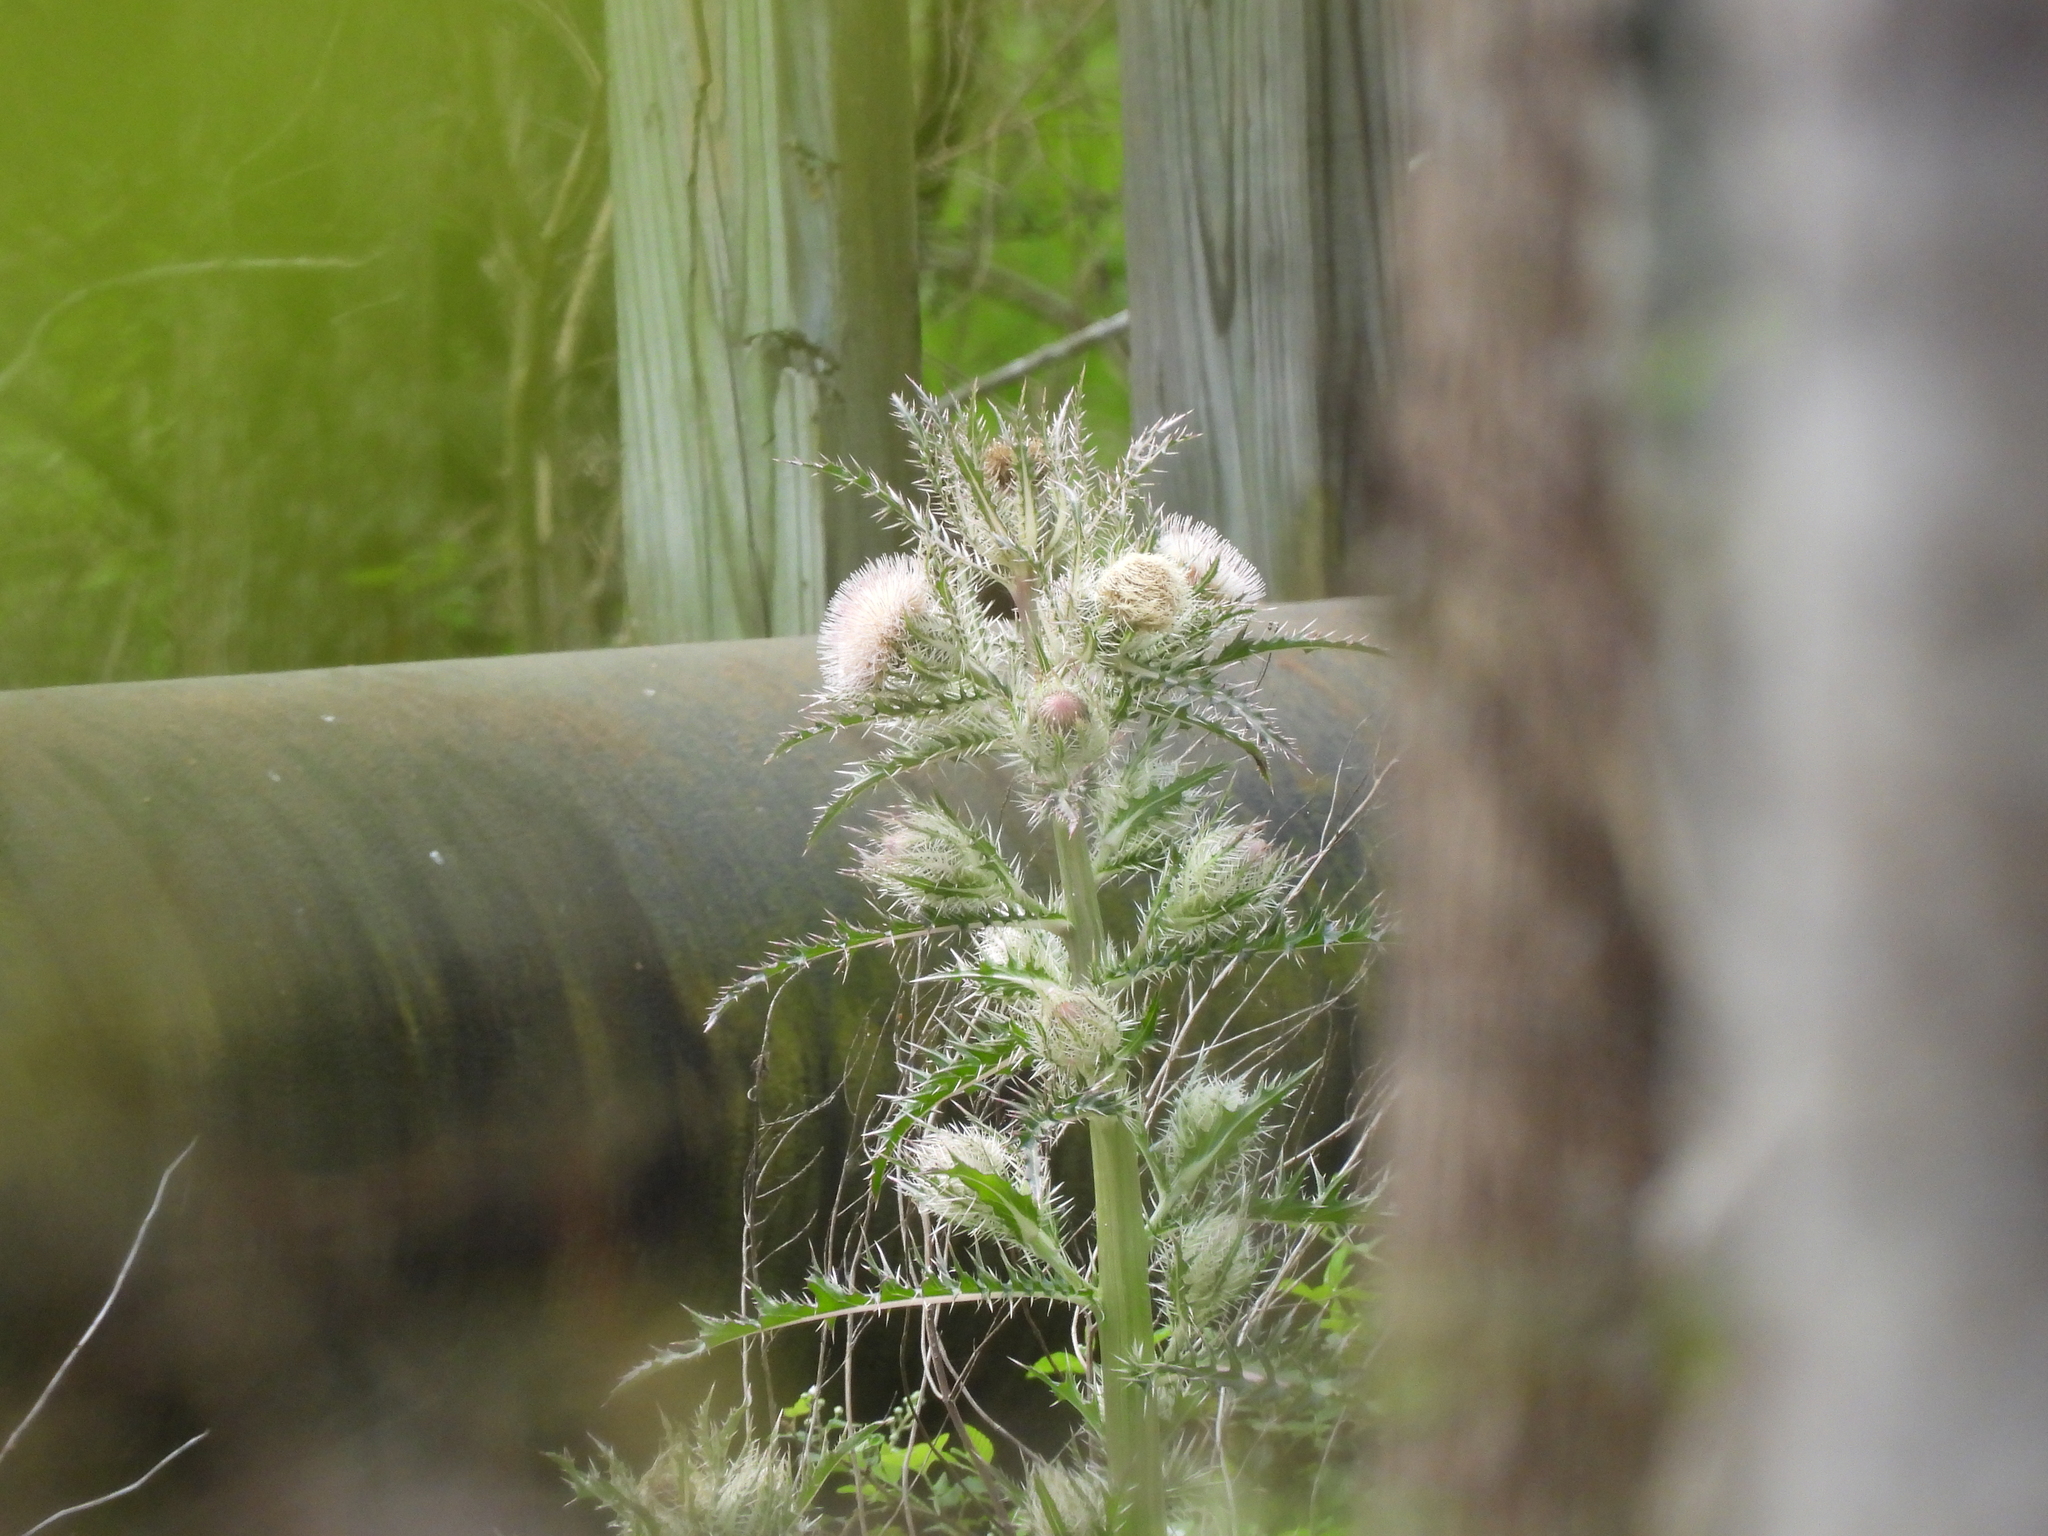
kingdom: Plantae
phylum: Tracheophyta
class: Magnoliopsida
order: Asterales
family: Asteraceae
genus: Cirsium
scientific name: Cirsium horridulum
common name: Bristly thistle
